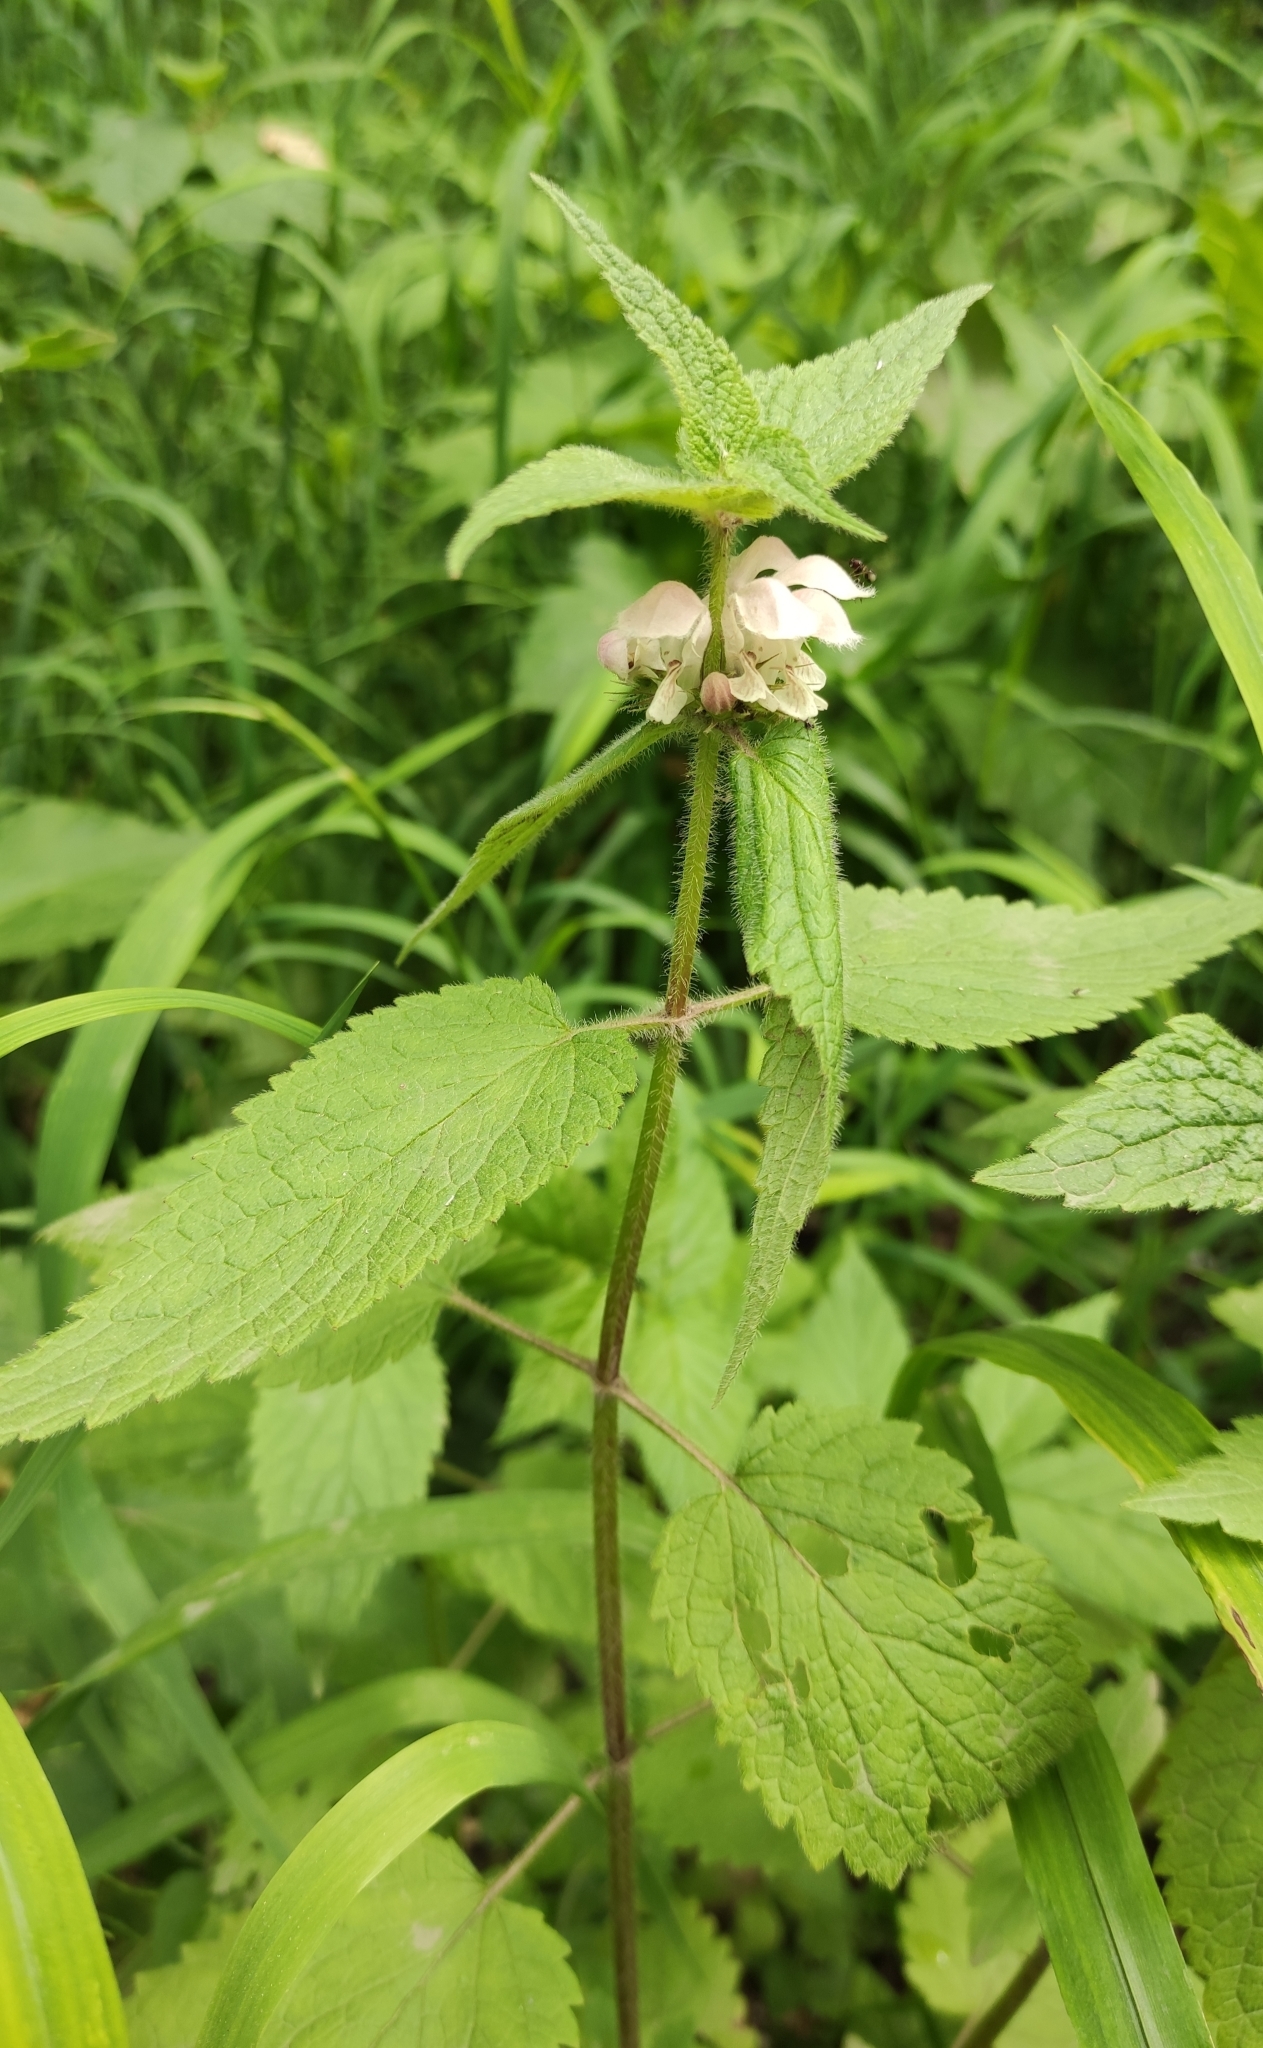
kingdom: Plantae
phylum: Tracheophyta
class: Magnoliopsida
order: Lamiales
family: Lamiaceae
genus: Lamium
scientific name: Lamium album
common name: White dead-nettle
